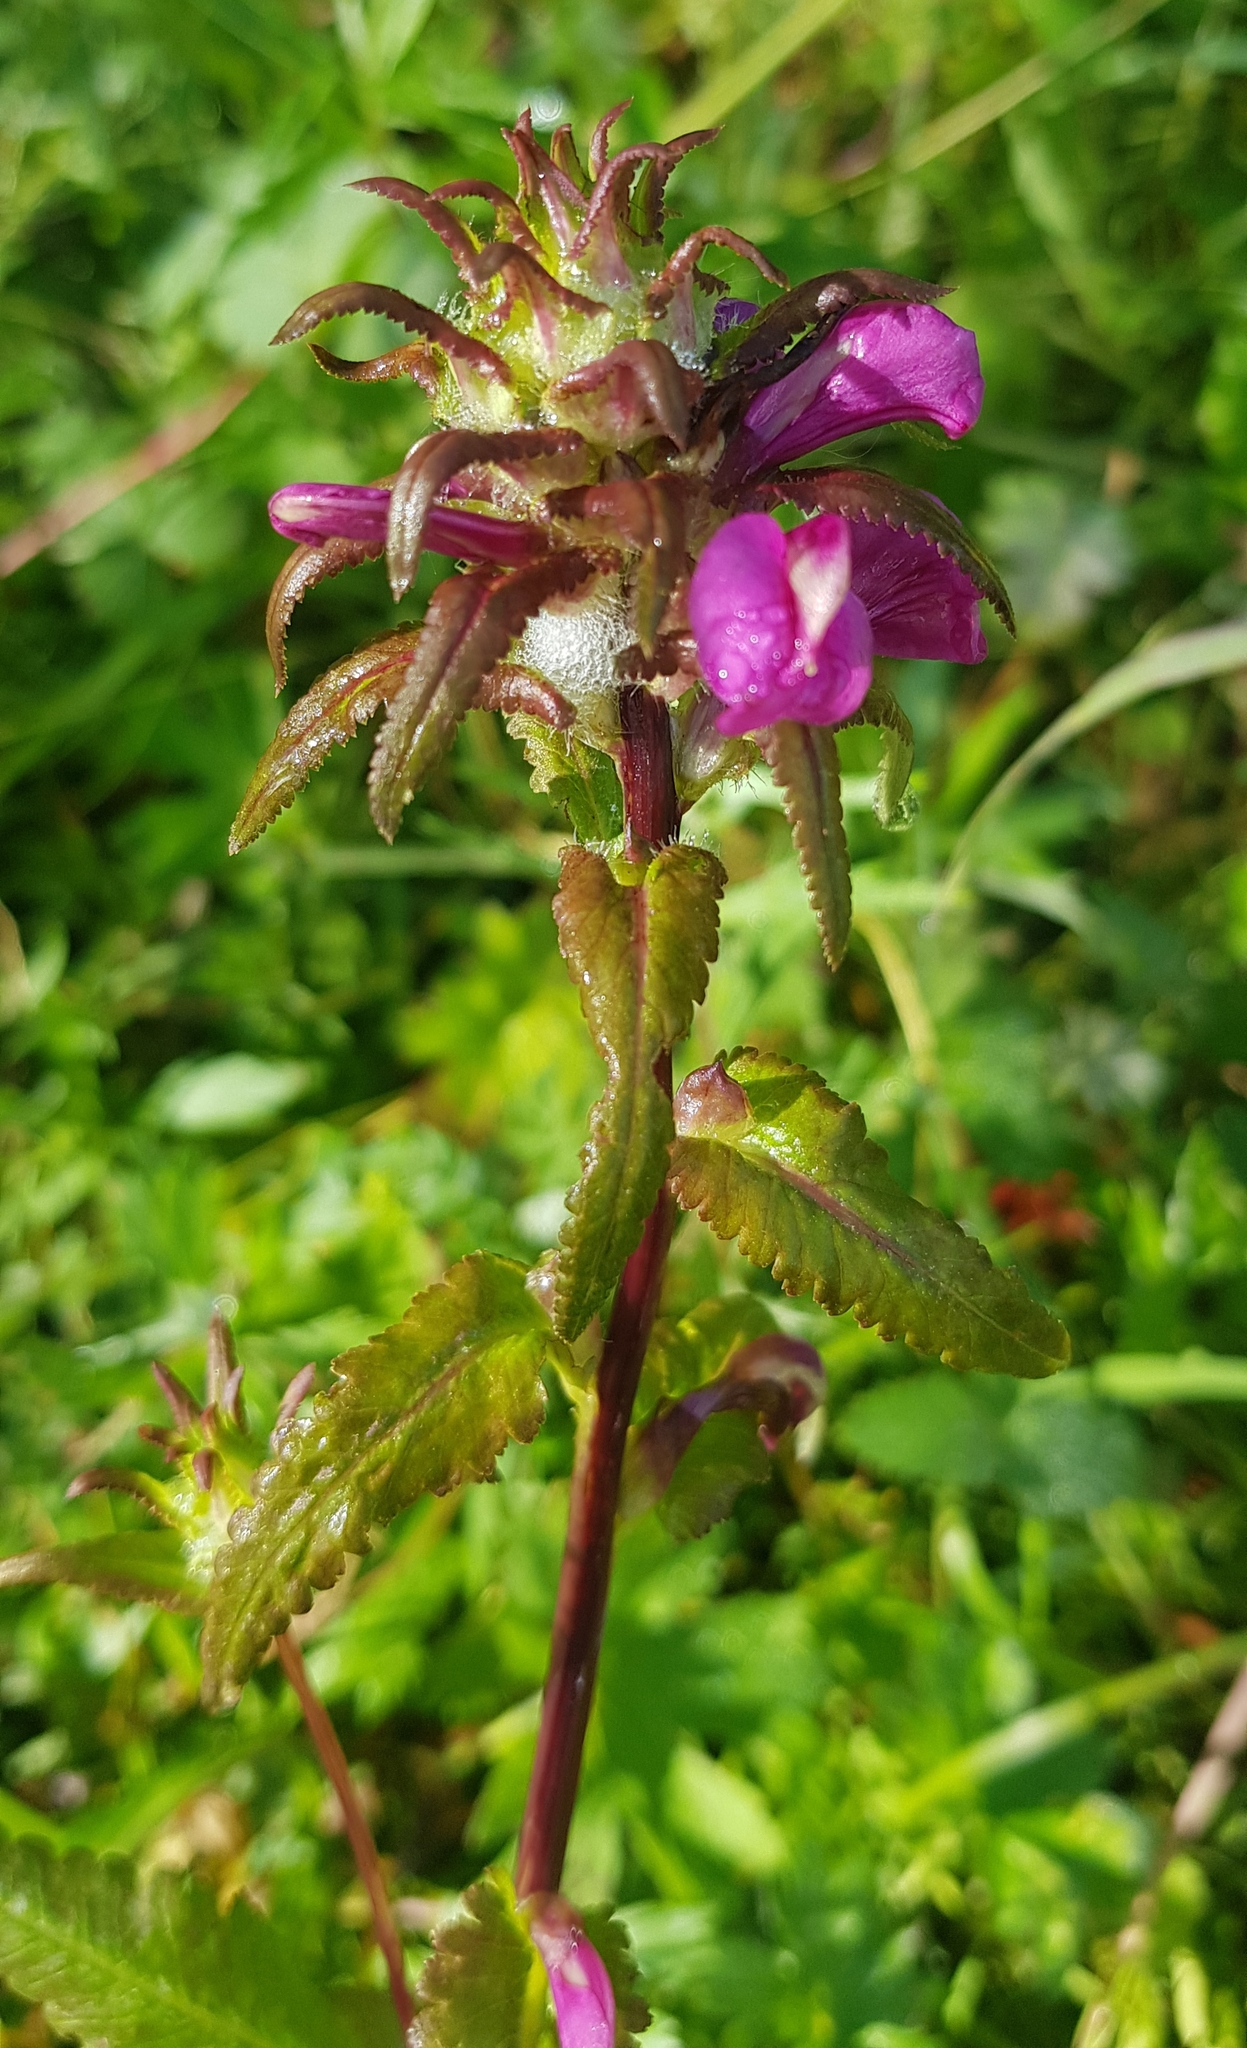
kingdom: Plantae
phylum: Tracheophyta
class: Magnoliopsida
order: Lamiales
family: Orobanchaceae
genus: Pedicularis
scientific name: Pedicularis resupinata
